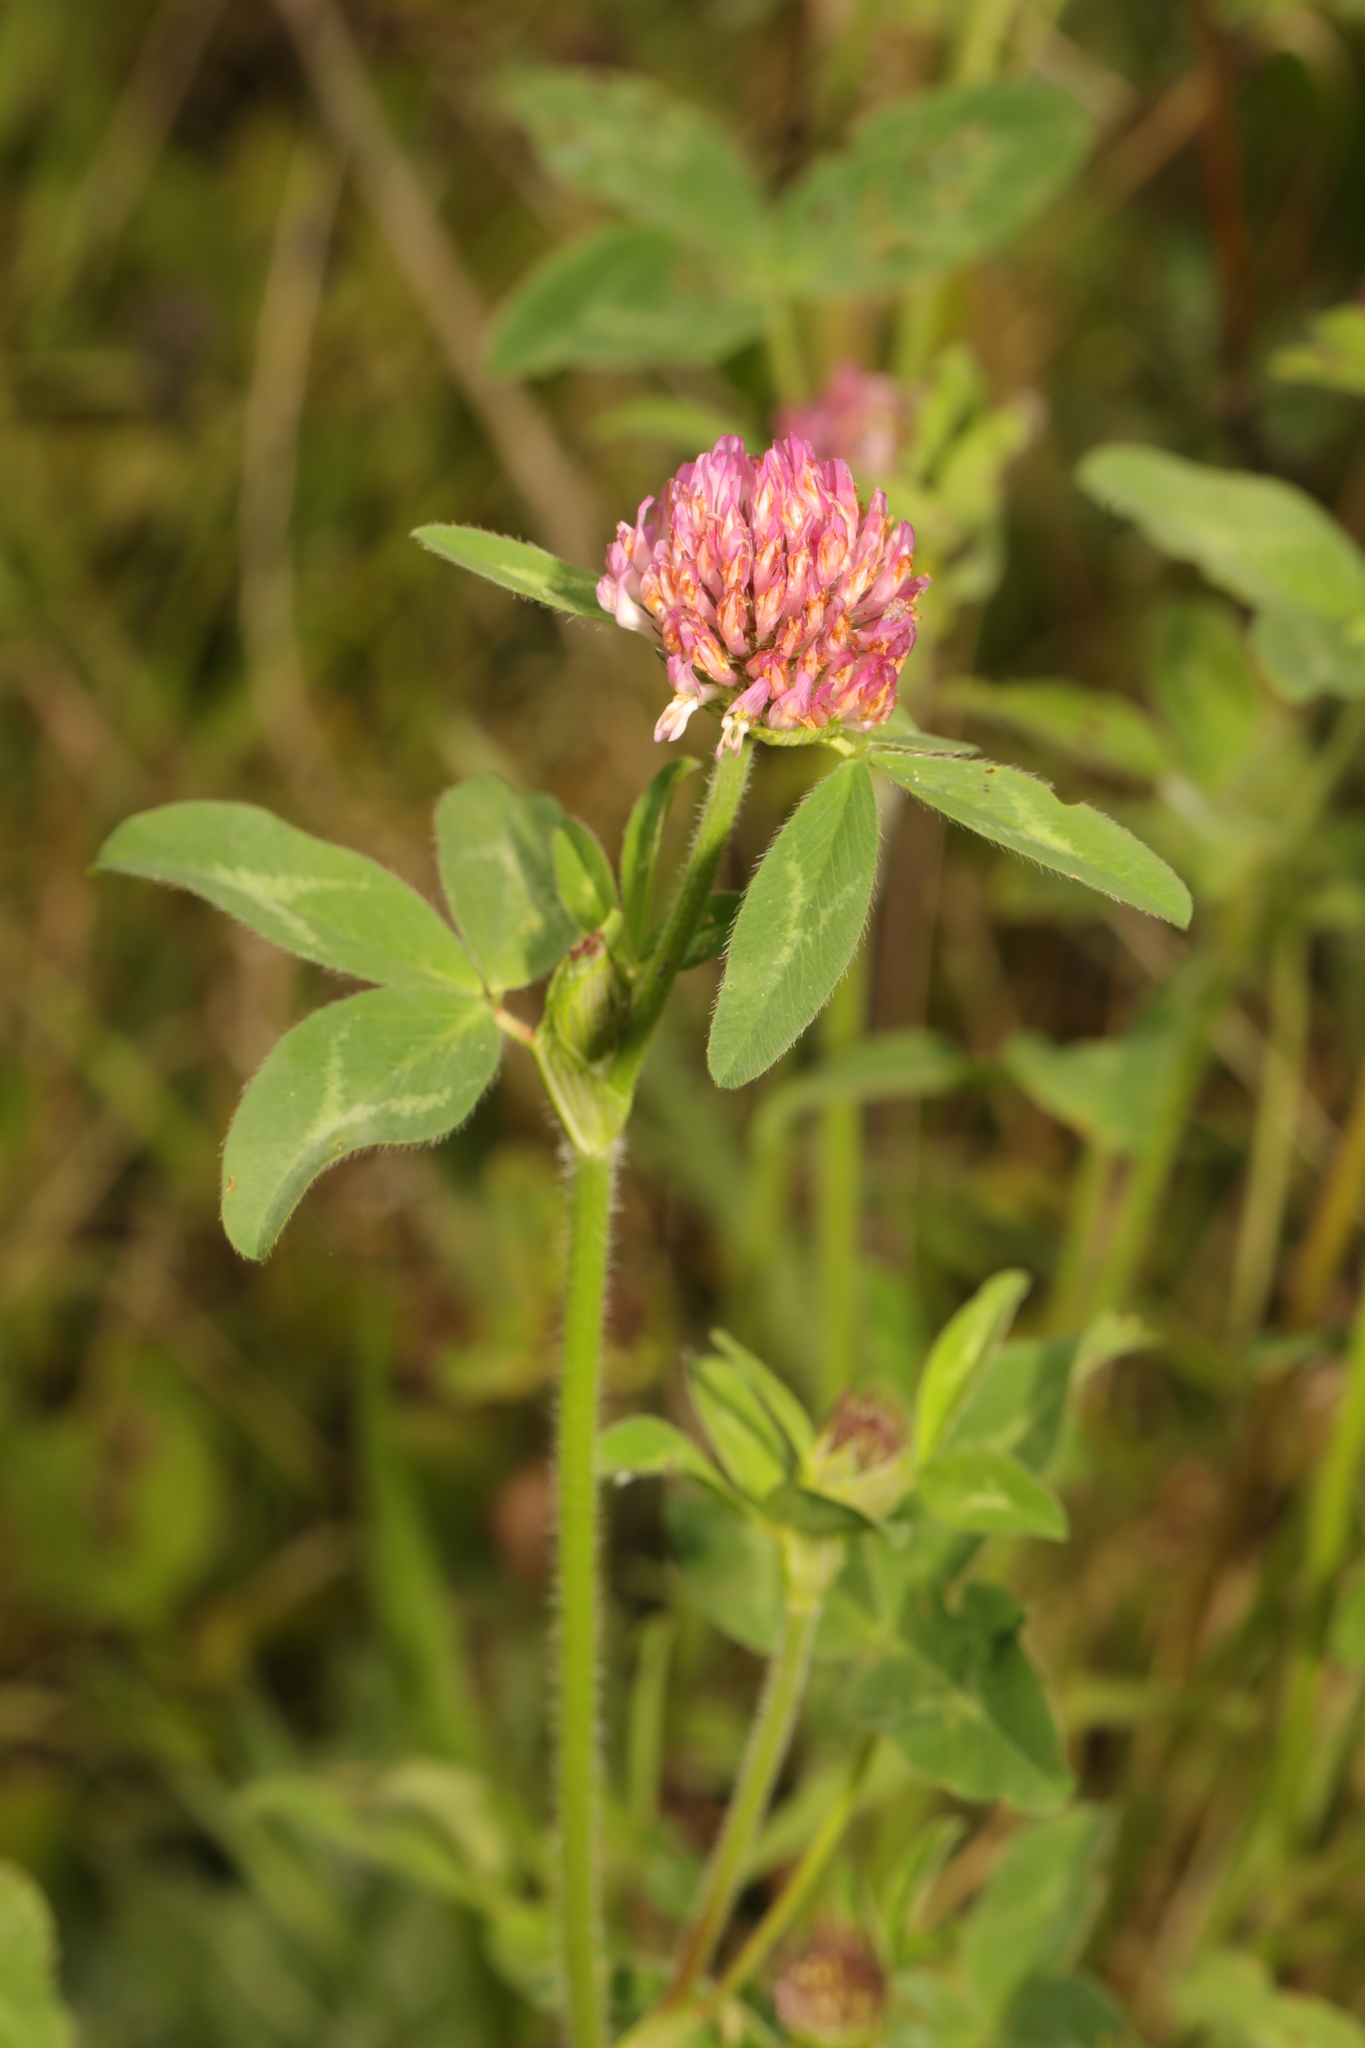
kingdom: Plantae
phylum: Tracheophyta
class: Magnoliopsida
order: Fabales
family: Fabaceae
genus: Trifolium
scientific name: Trifolium pratense
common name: Red clover
